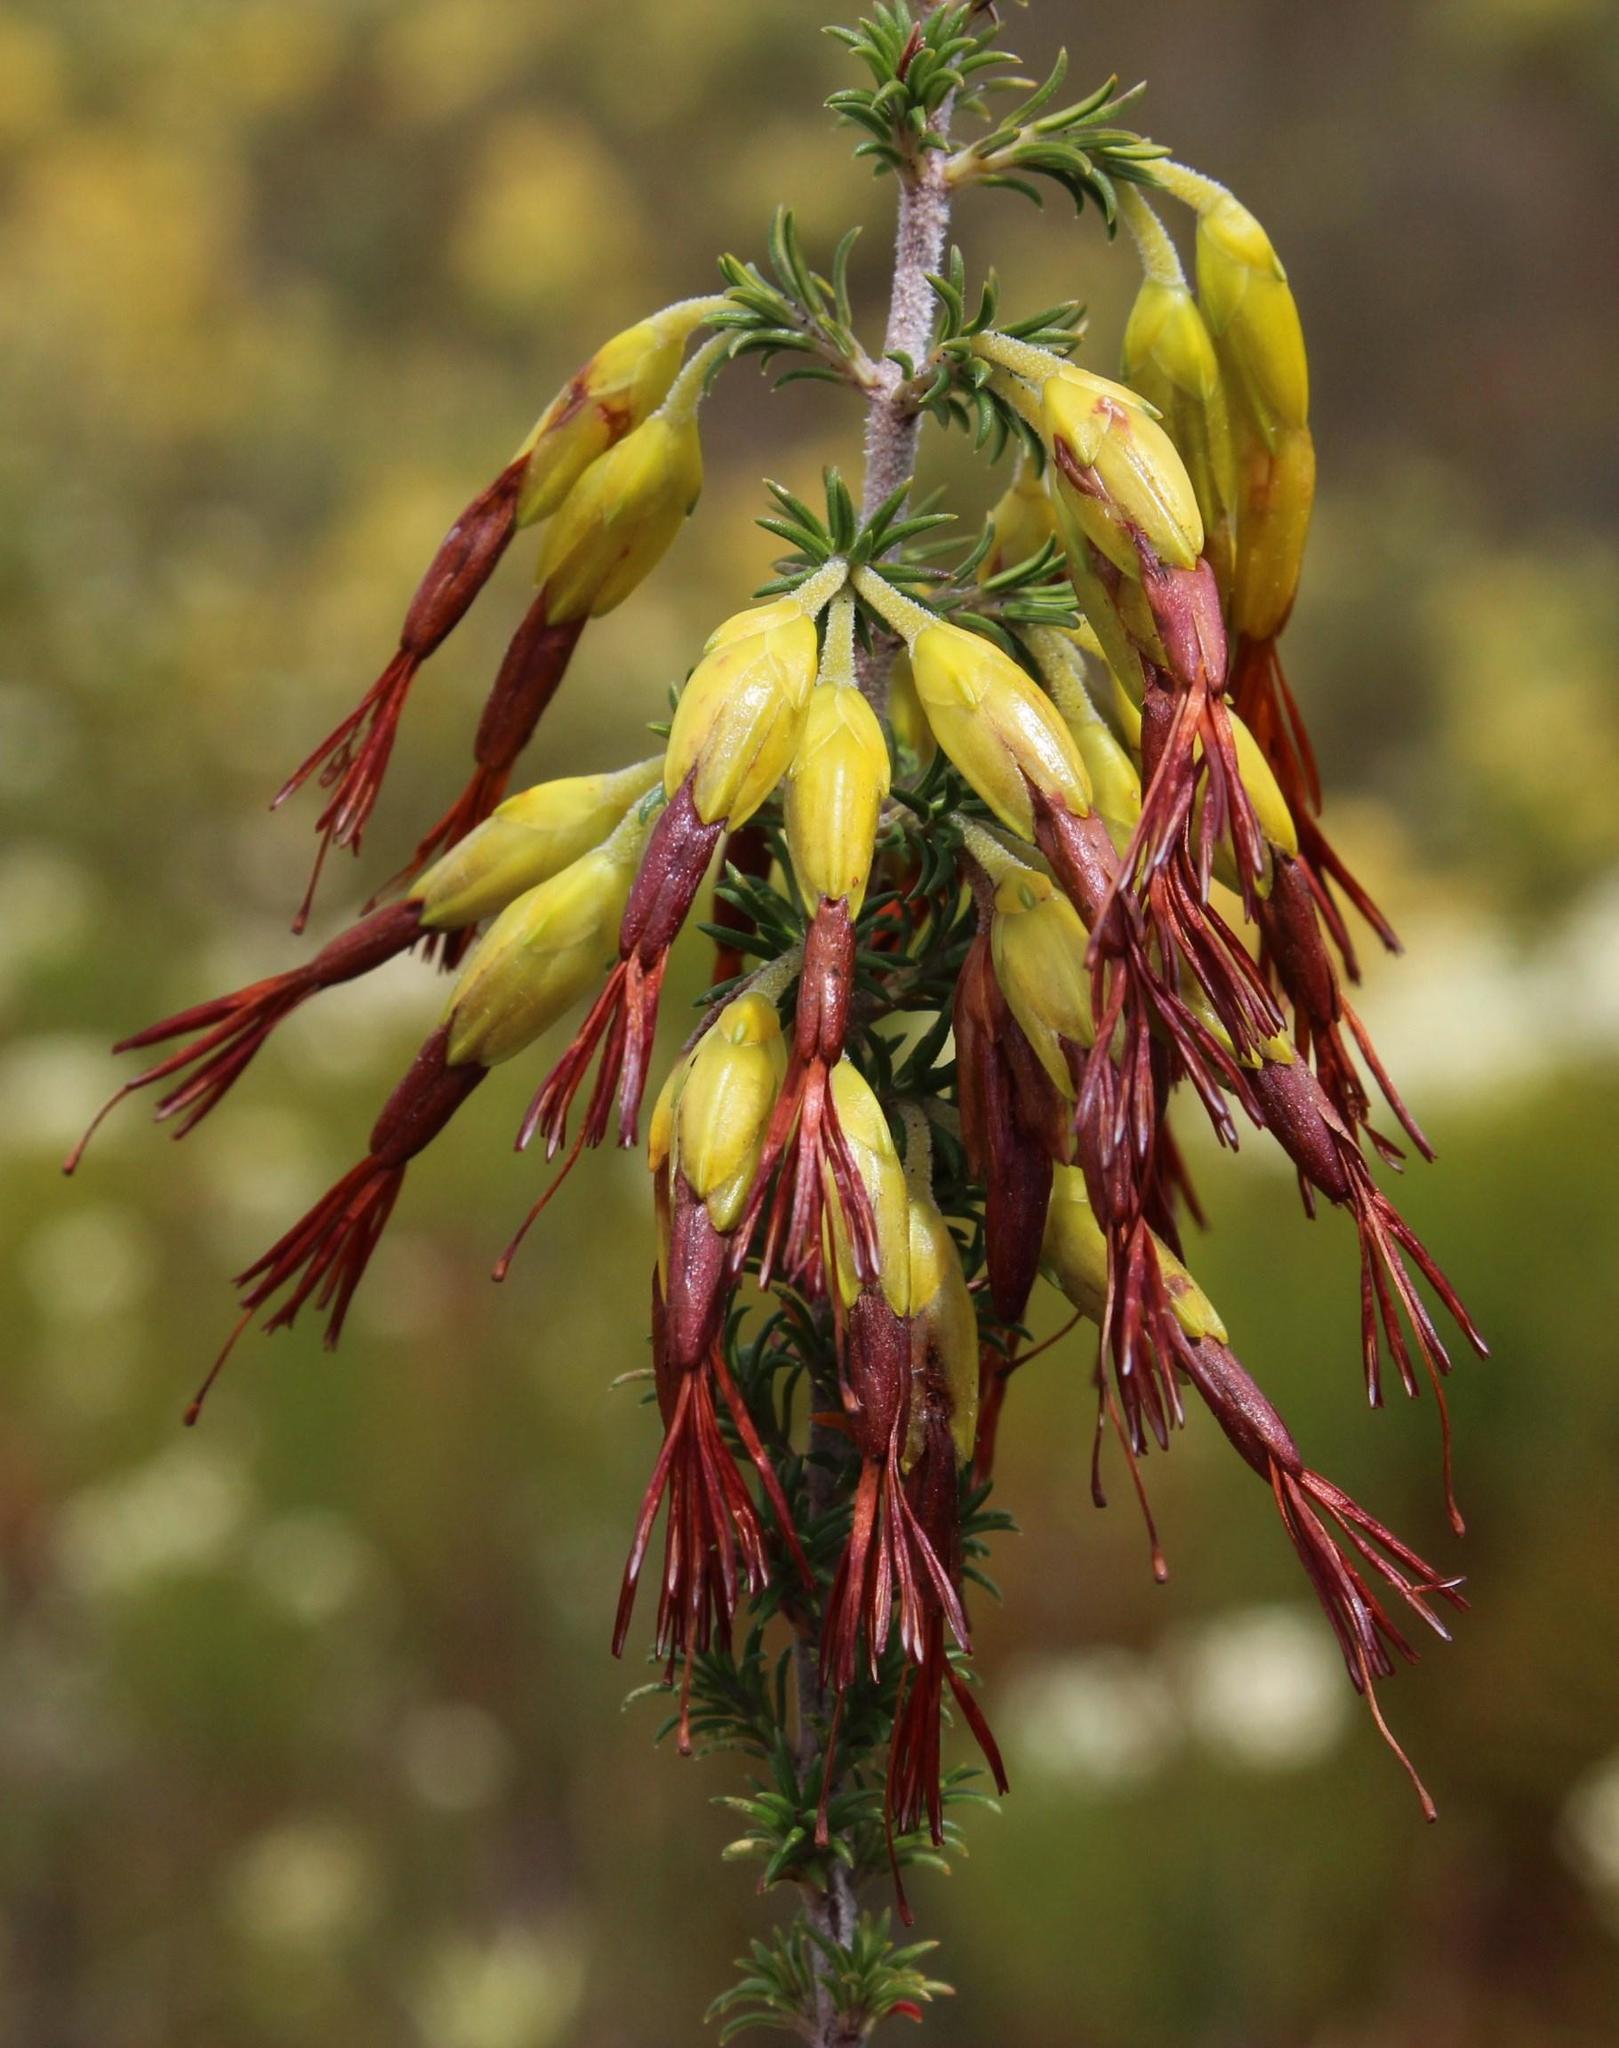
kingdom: Plantae
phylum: Tracheophyta
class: Magnoliopsida
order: Ericales
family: Ericaceae
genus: Erica
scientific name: Erica coccinea
